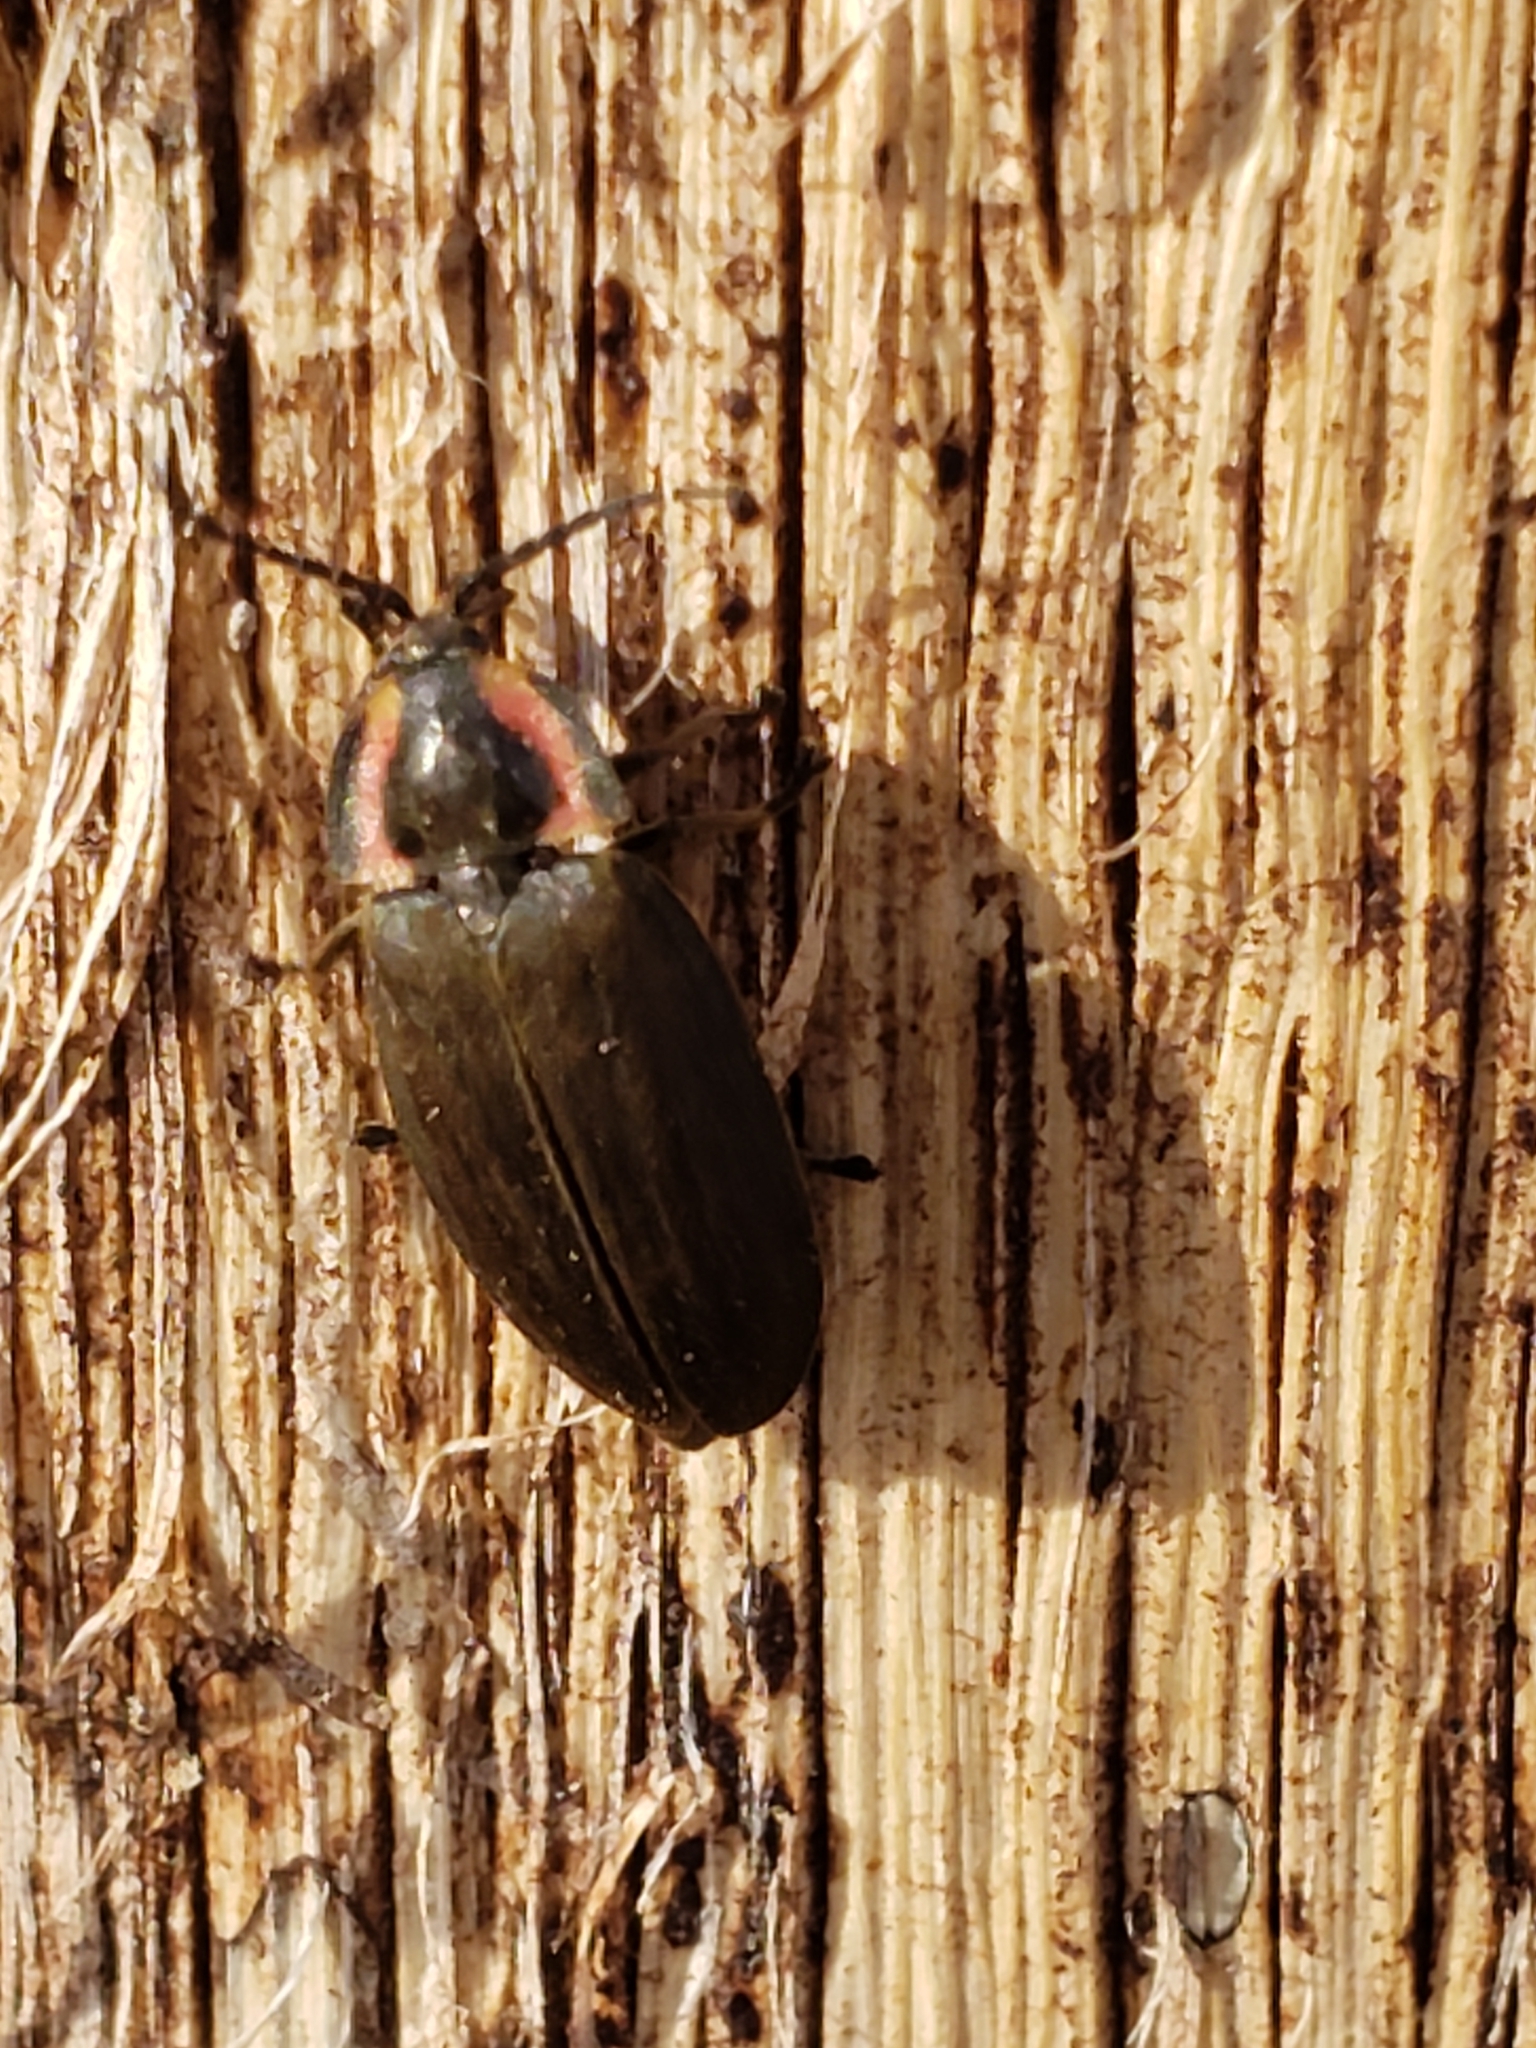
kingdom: Animalia
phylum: Arthropoda
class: Insecta
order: Coleoptera
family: Lampyridae
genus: Photinus
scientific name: Photinus corrusca
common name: Winter firefly
